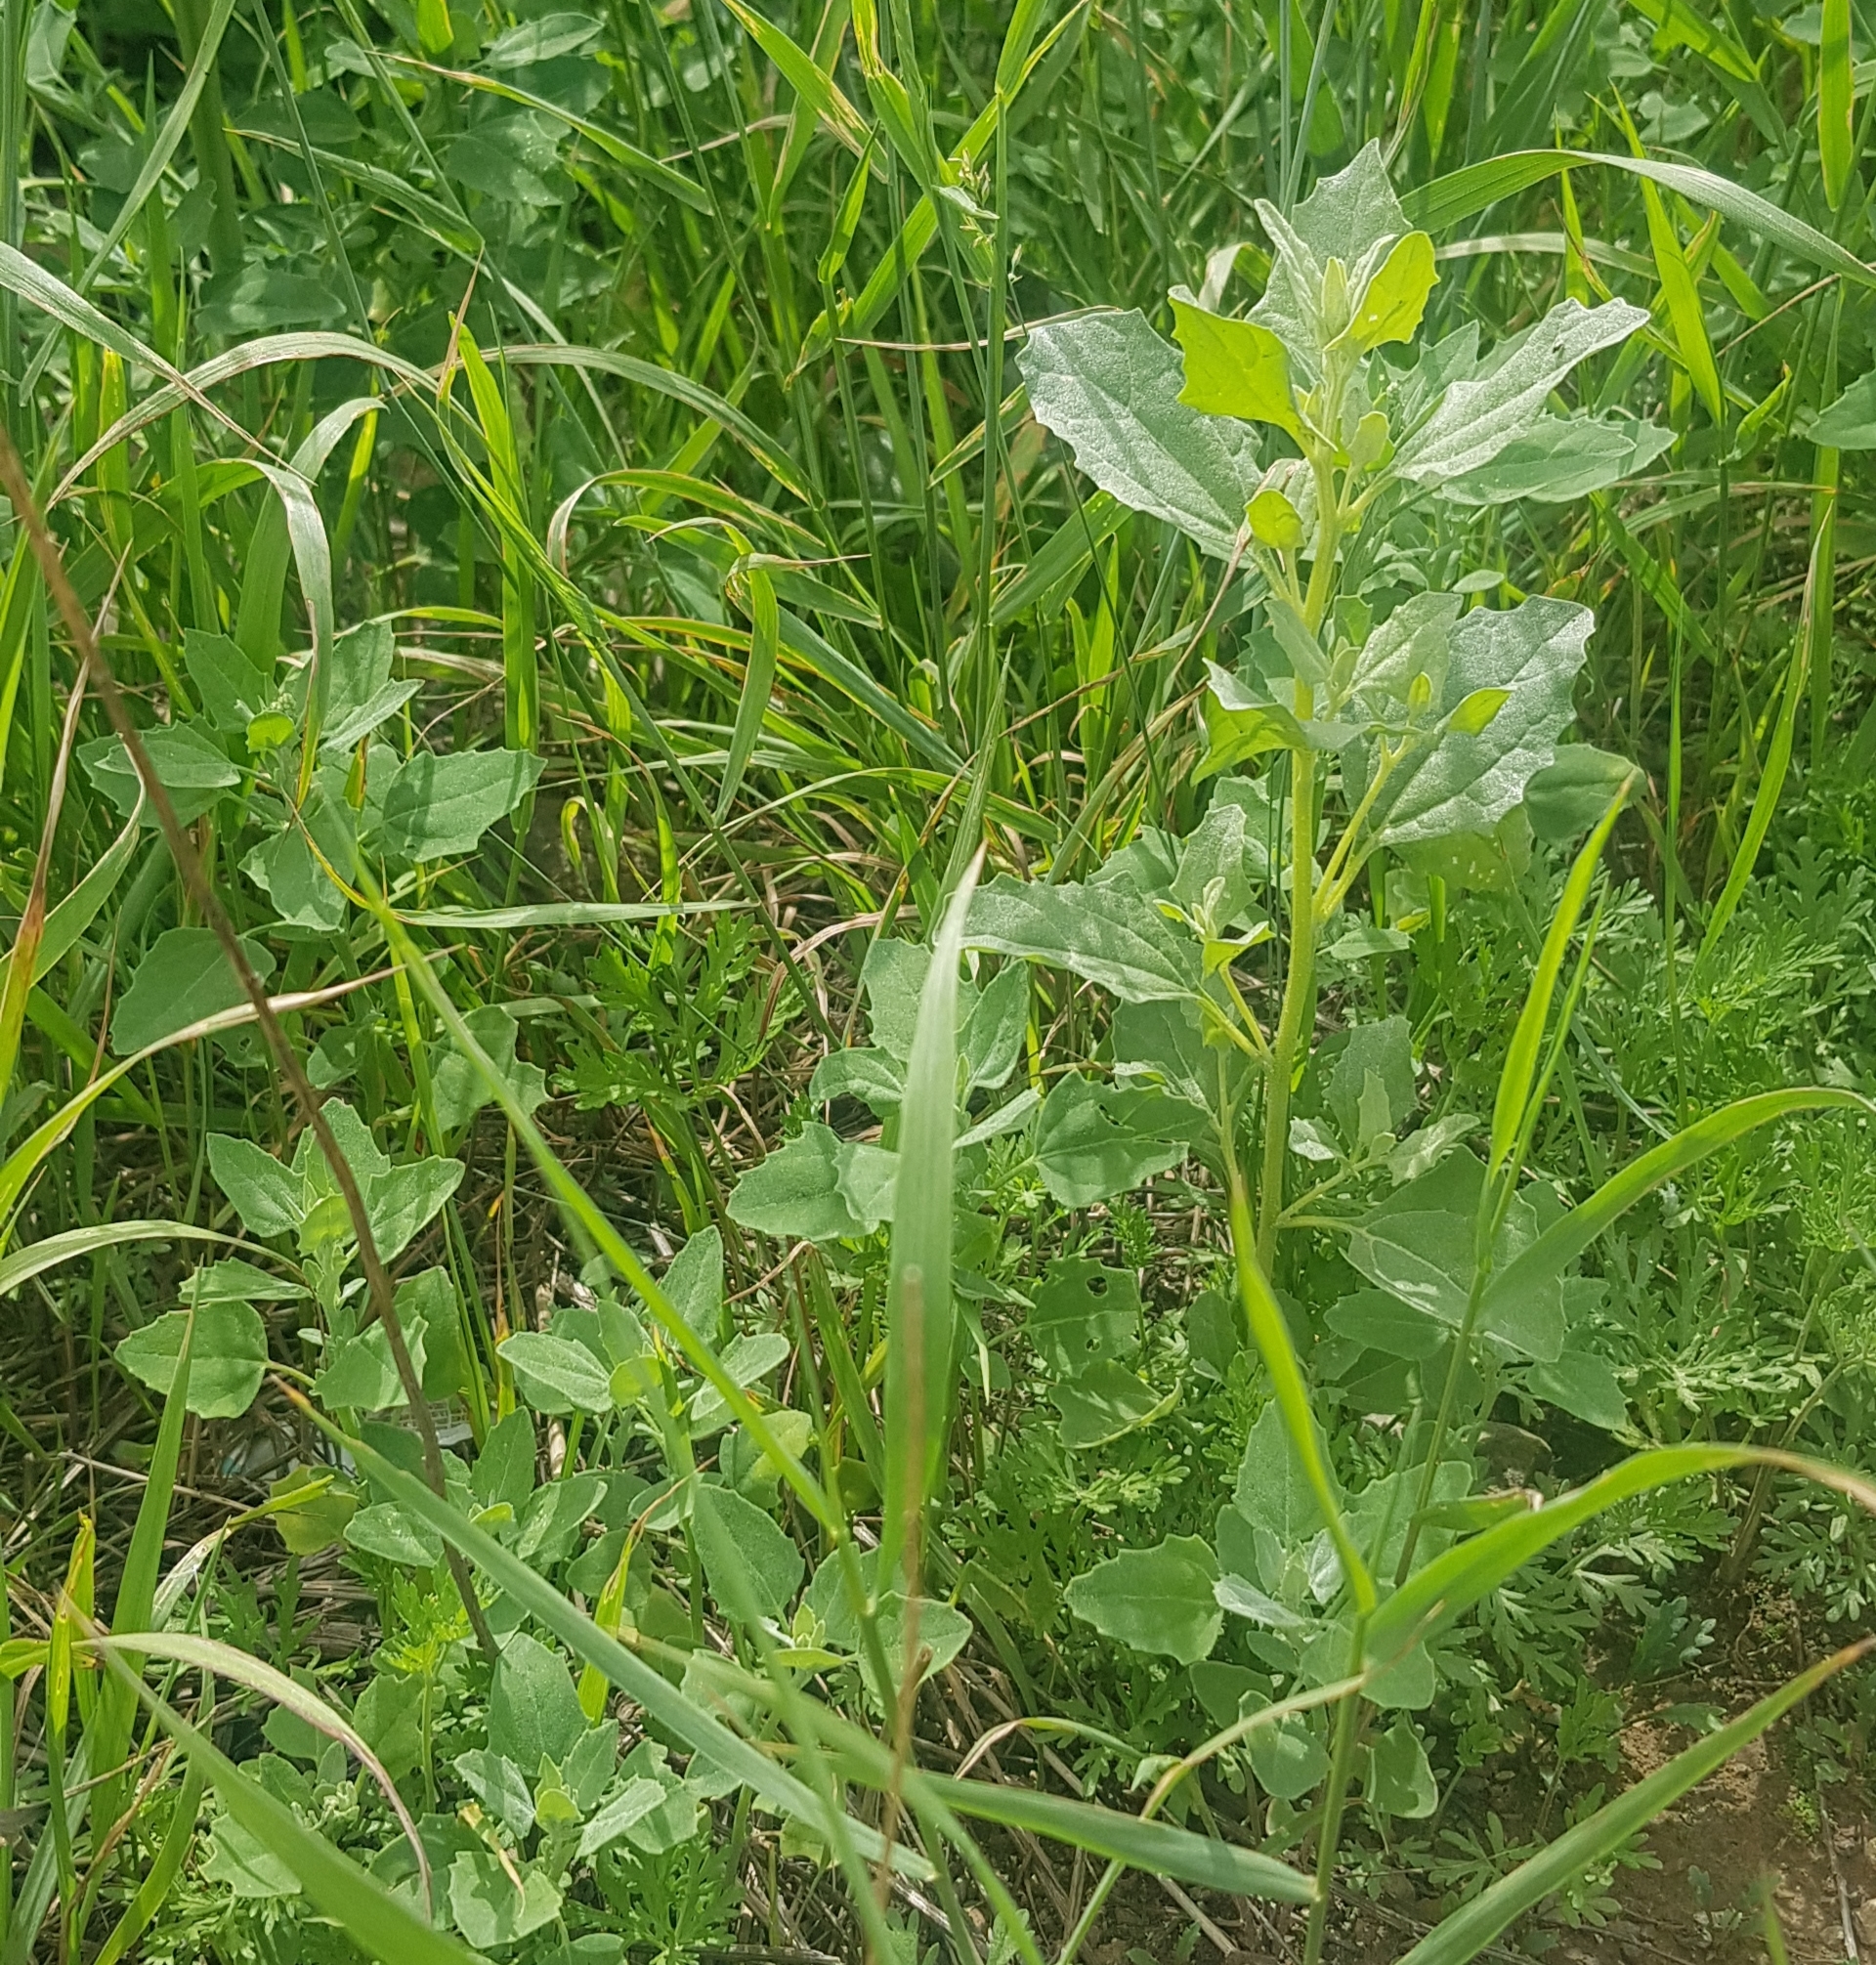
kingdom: Plantae
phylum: Tracheophyta
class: Magnoliopsida
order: Caryophyllales
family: Amaranthaceae
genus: Chenopodium
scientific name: Chenopodium album
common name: Fat-hen
